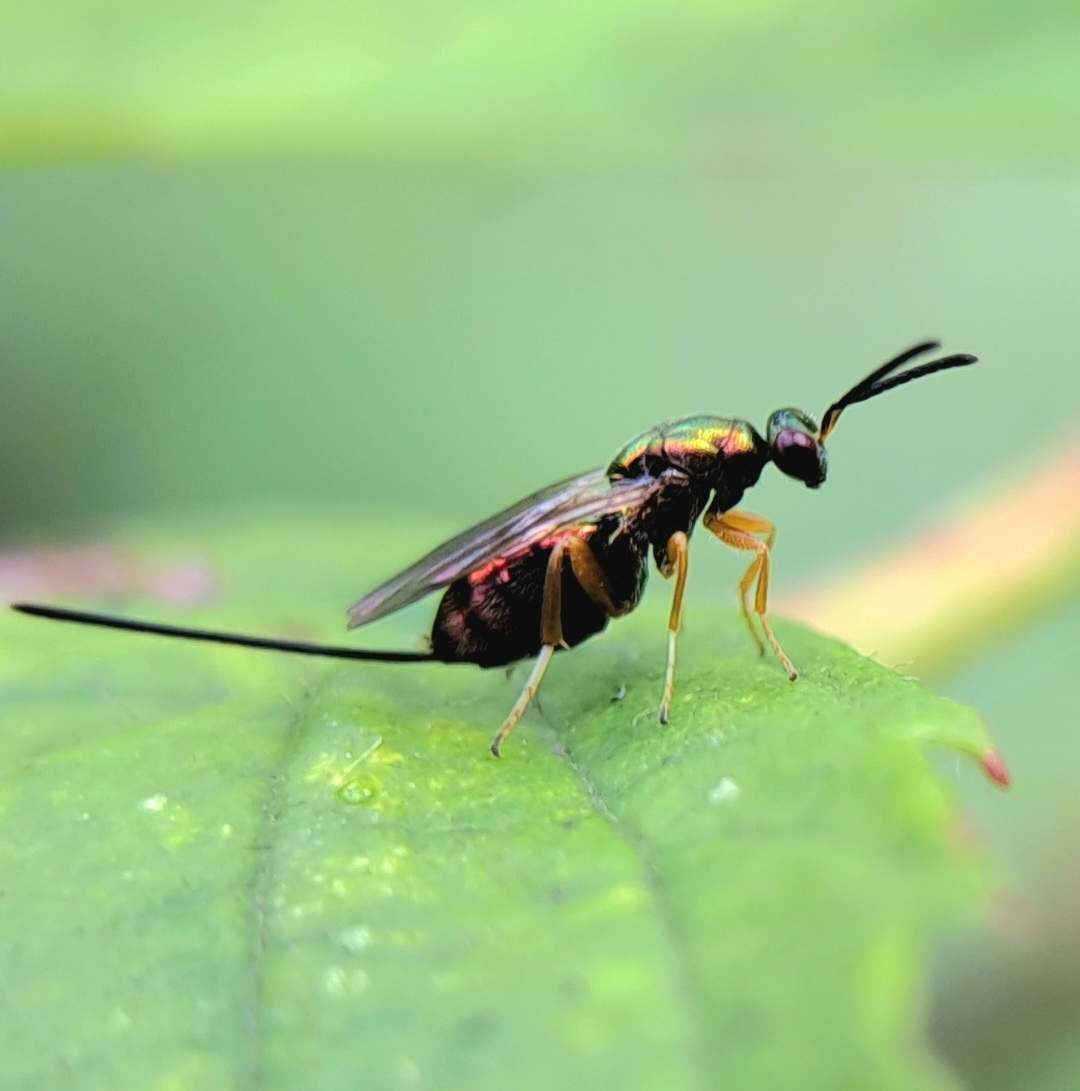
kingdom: Animalia
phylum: Arthropoda
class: Insecta
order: Hymenoptera
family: Torymidae
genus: Torymus
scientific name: Torymus bedeguaris
